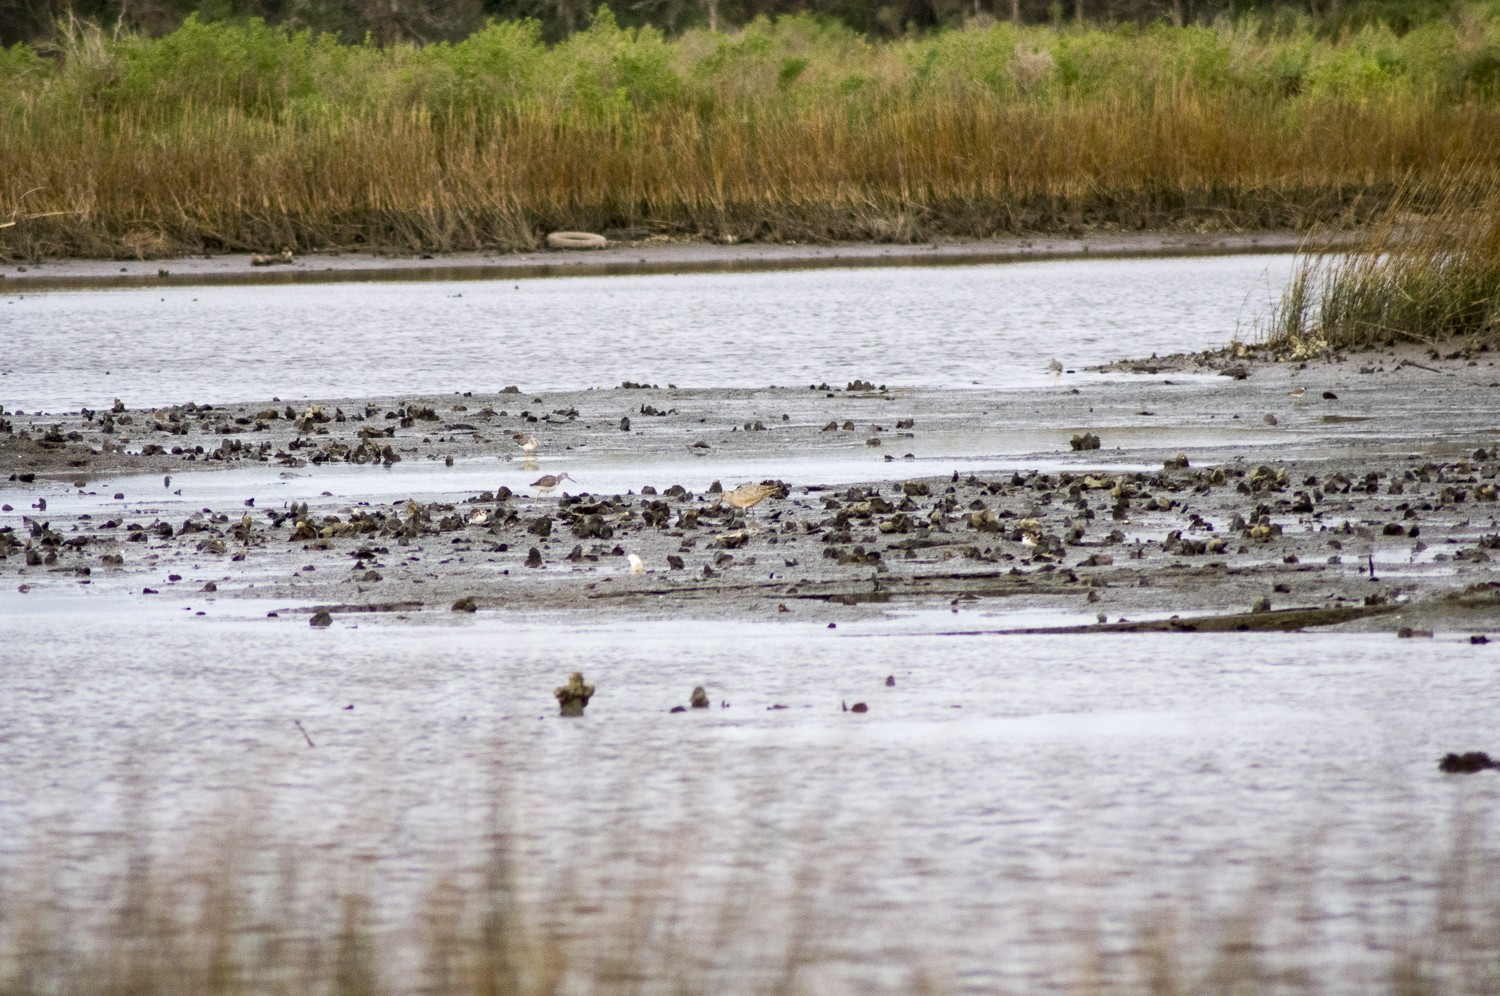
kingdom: Animalia
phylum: Chordata
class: Aves
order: Charadriiformes
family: Scolopacidae
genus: Numenius
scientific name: Numenius americanus
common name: Long-billed curlew
